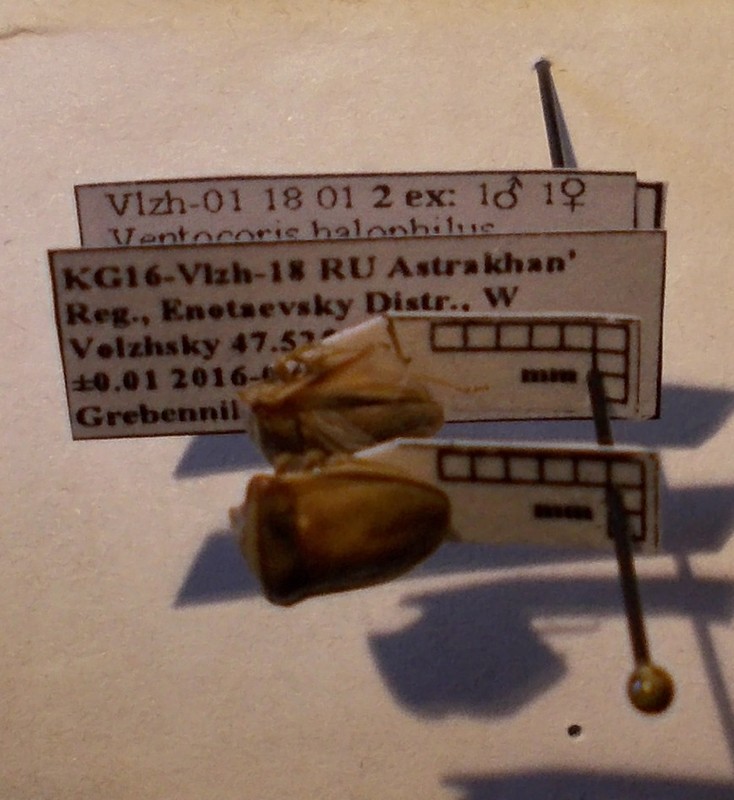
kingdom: Animalia
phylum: Arthropoda
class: Insecta
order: Hemiptera
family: Pentatomidae
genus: Ventocoris
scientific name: Ventocoris halophilum
